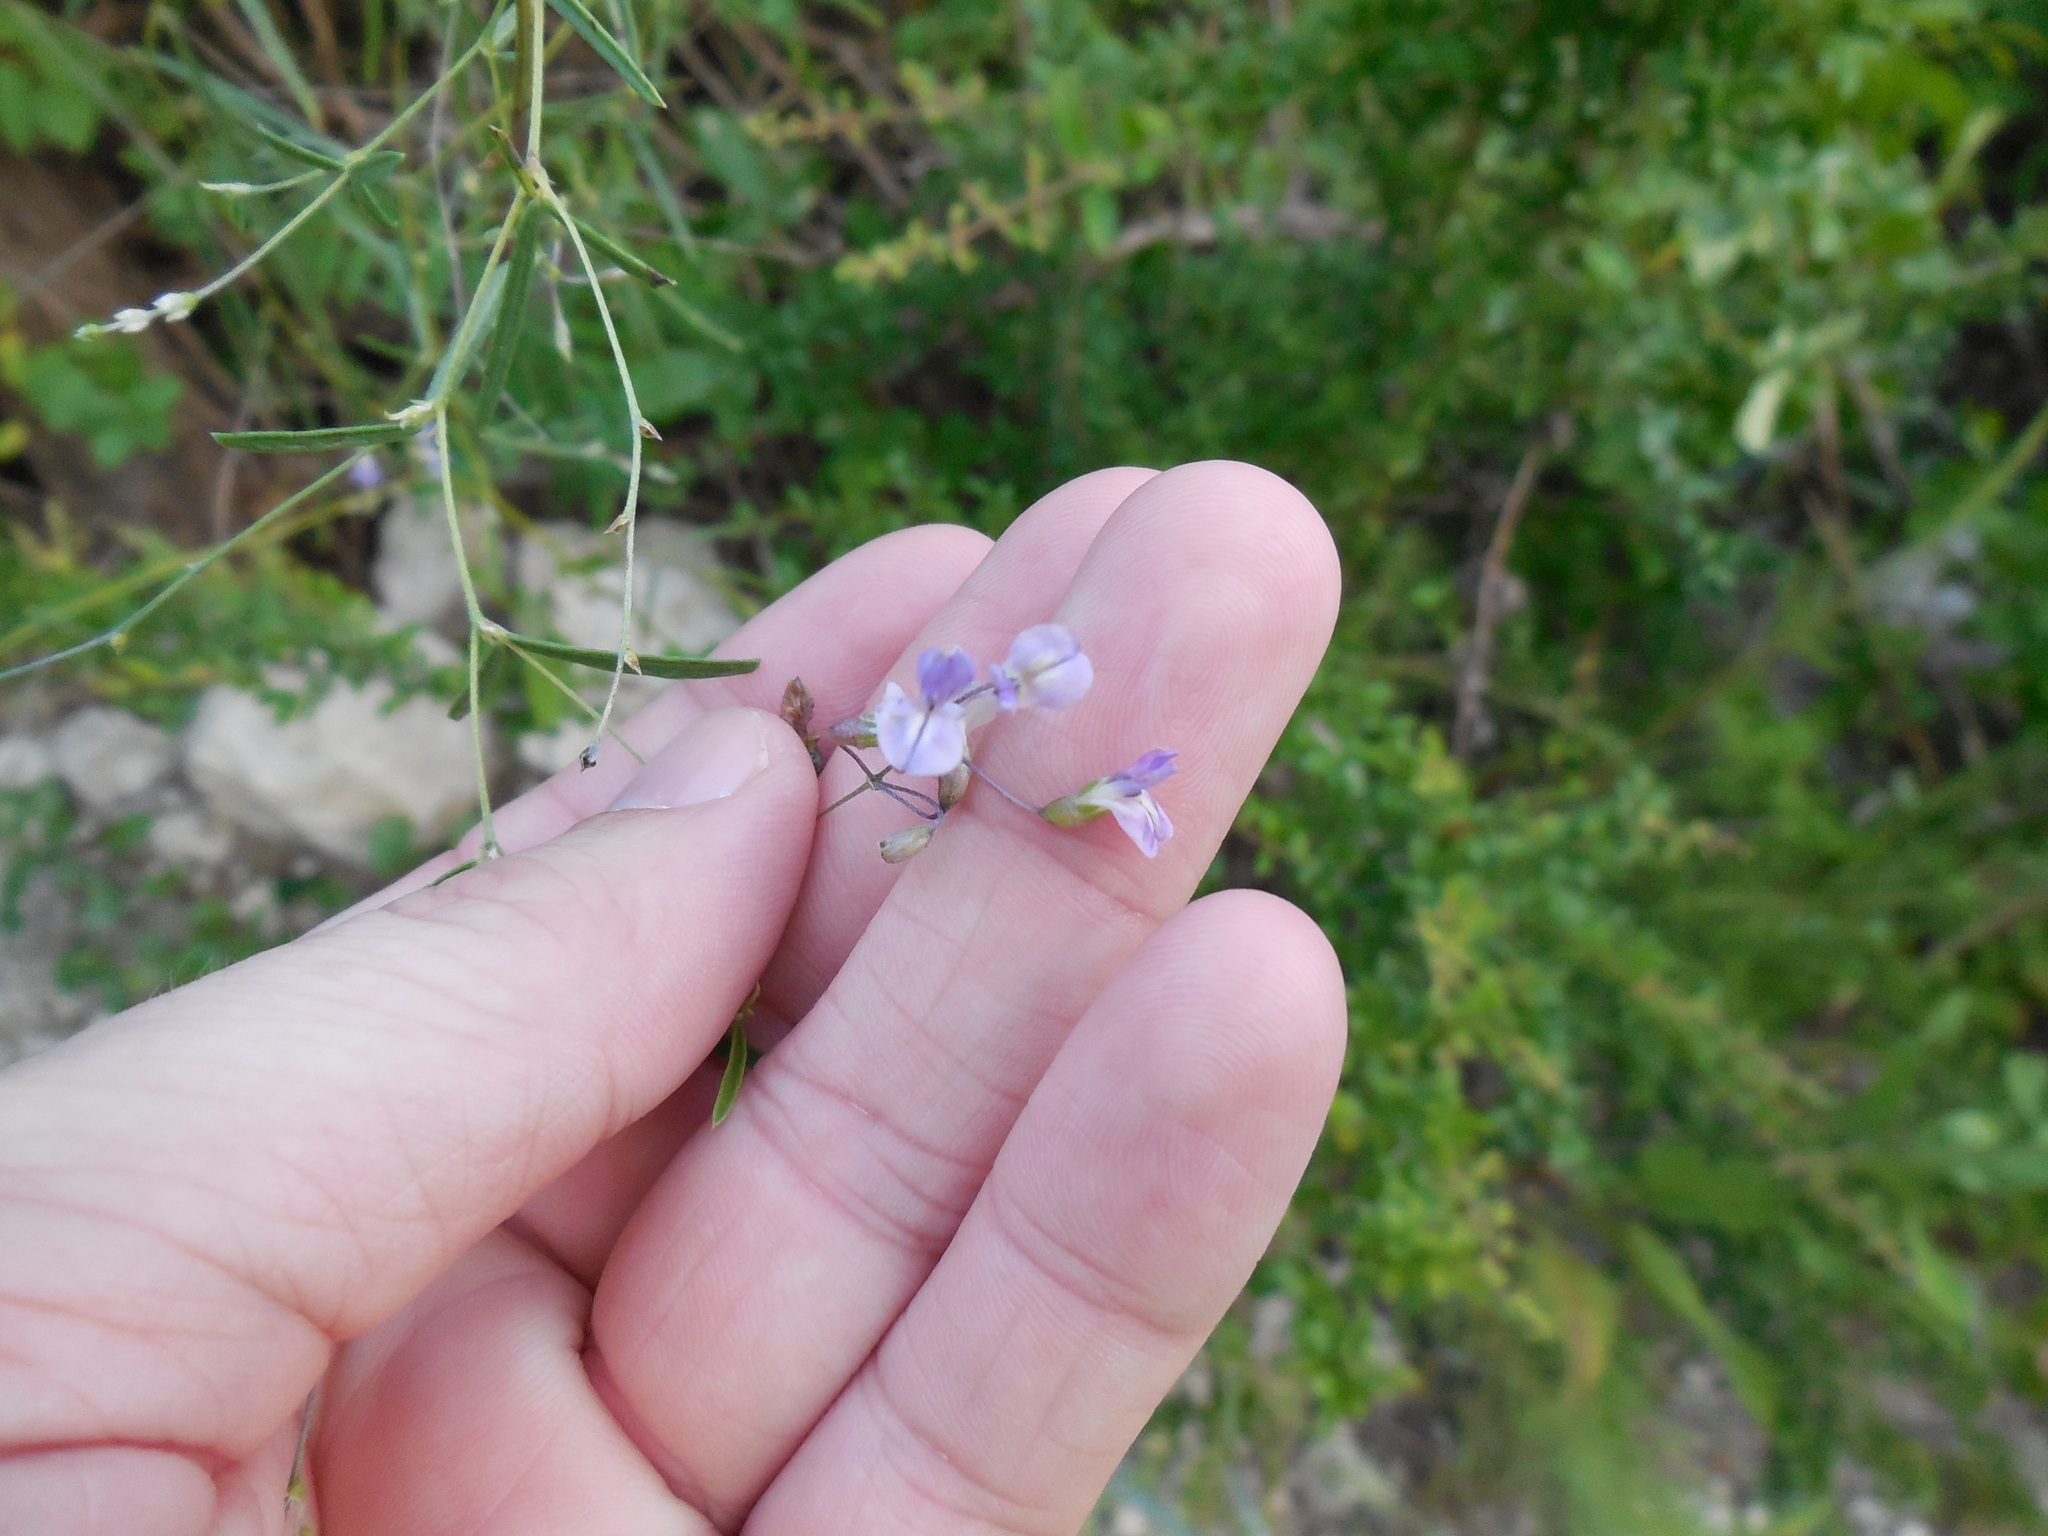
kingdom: Plantae
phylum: Tracheophyta
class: Magnoliopsida
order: Fabales
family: Fabaceae
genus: Pediomelum
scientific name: Pediomelum linearifolium
